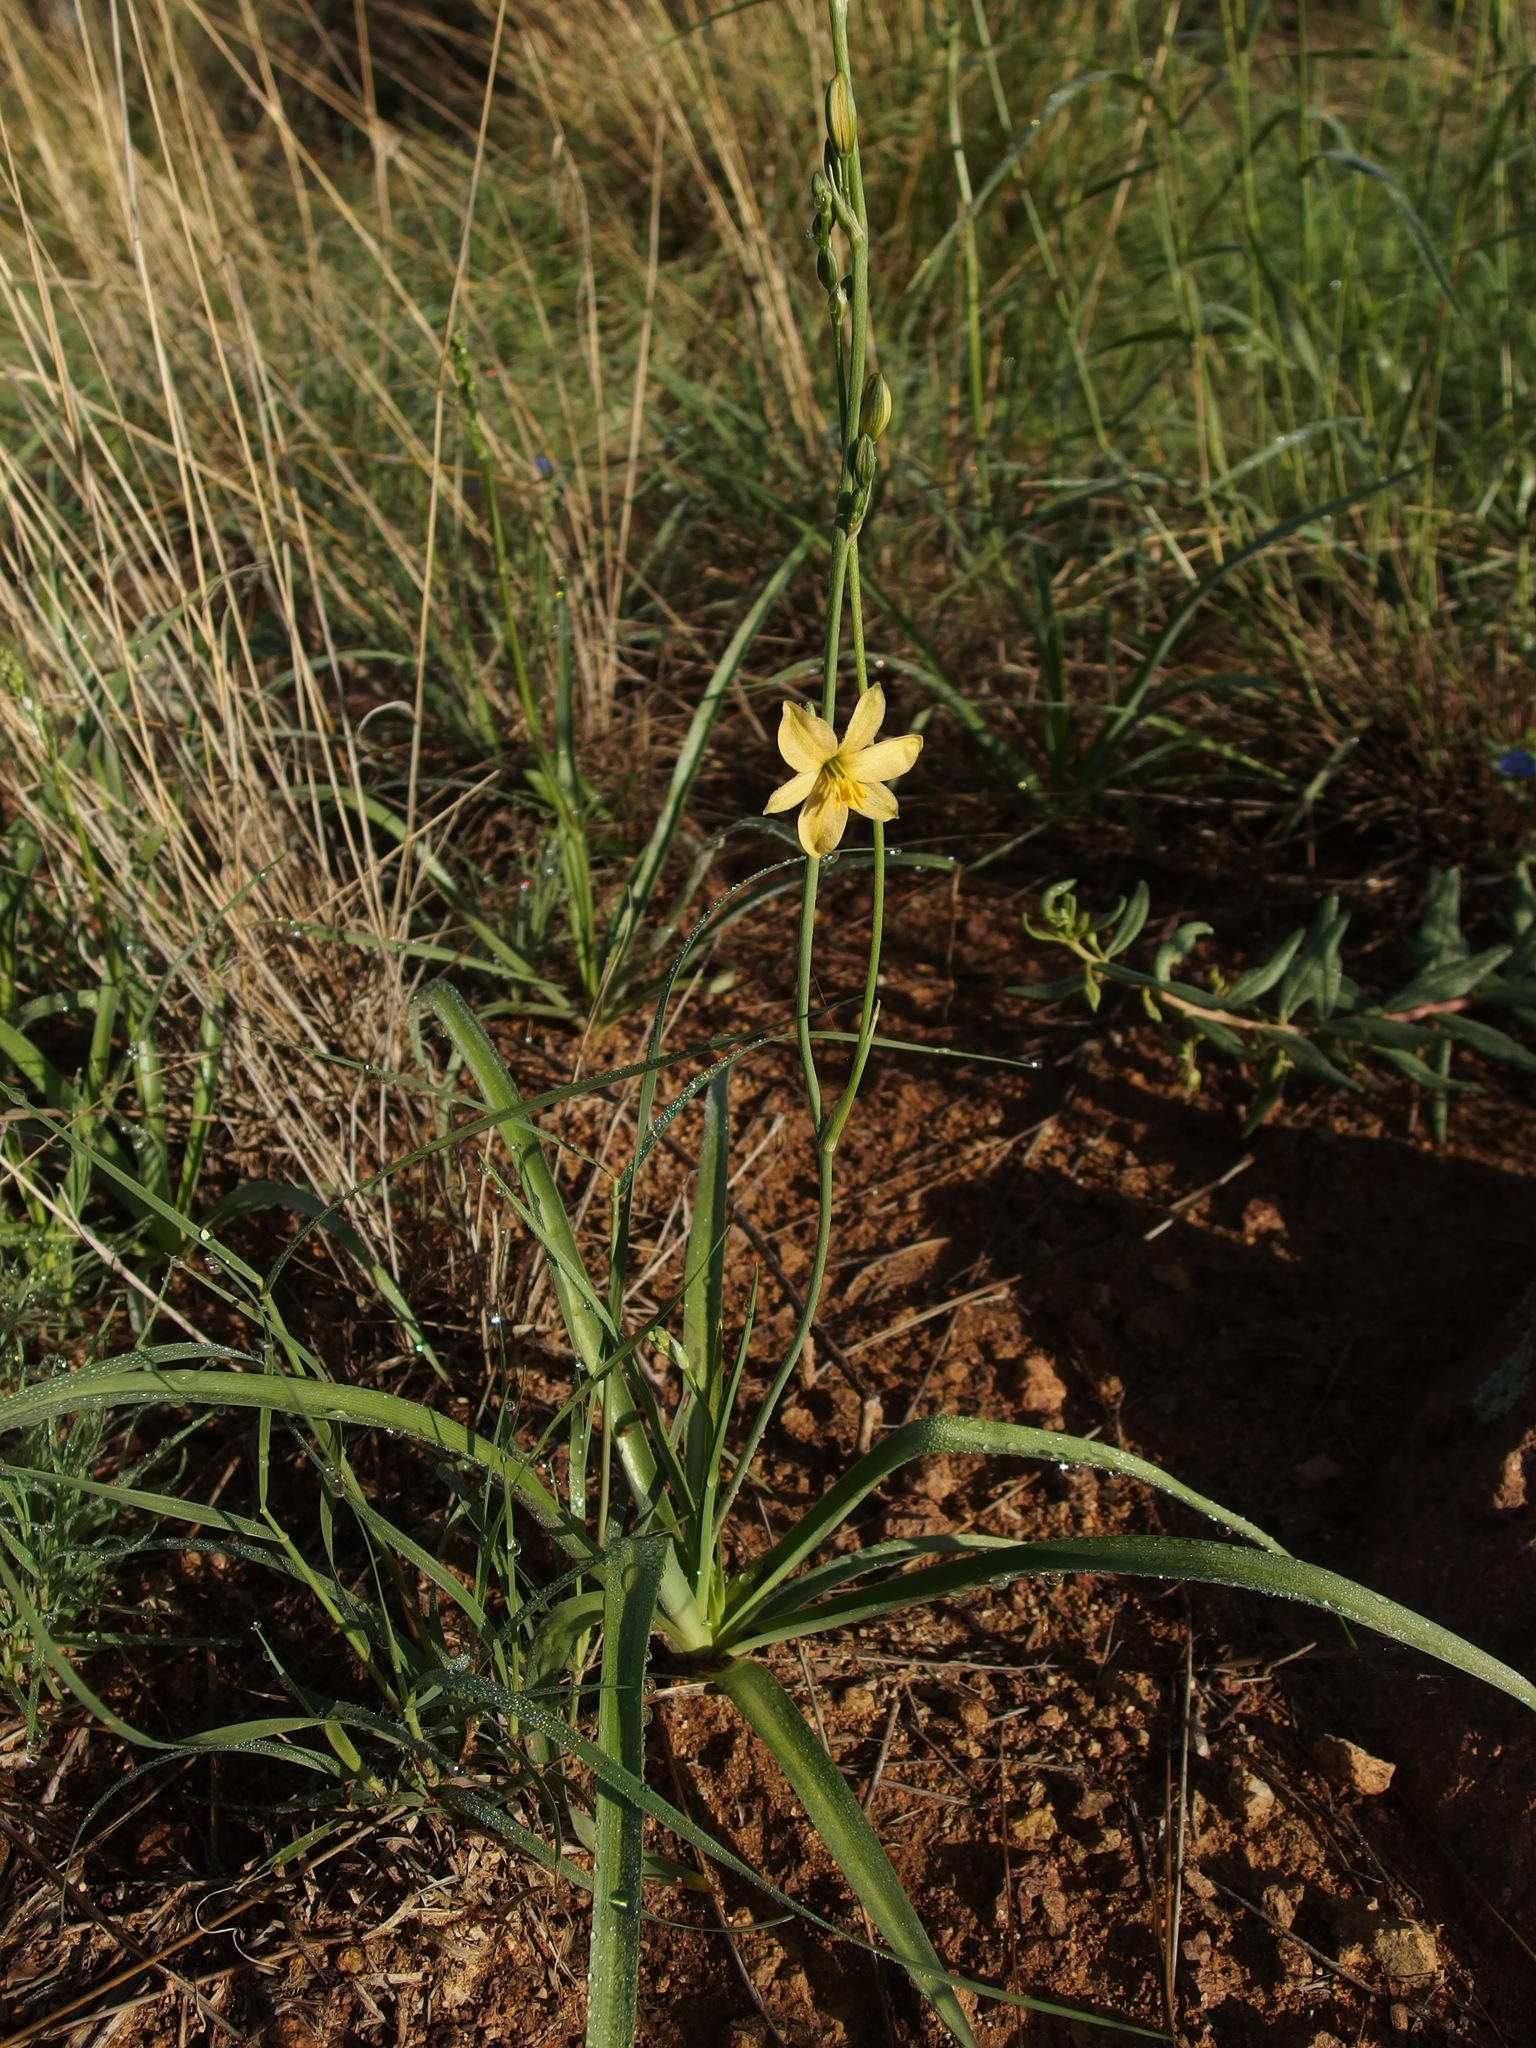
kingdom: Plantae
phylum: Tracheophyta
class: Liliopsida
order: Asparagales
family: Asparagaceae
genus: Echeandia
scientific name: Echeandia flavescens
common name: Amberlily
